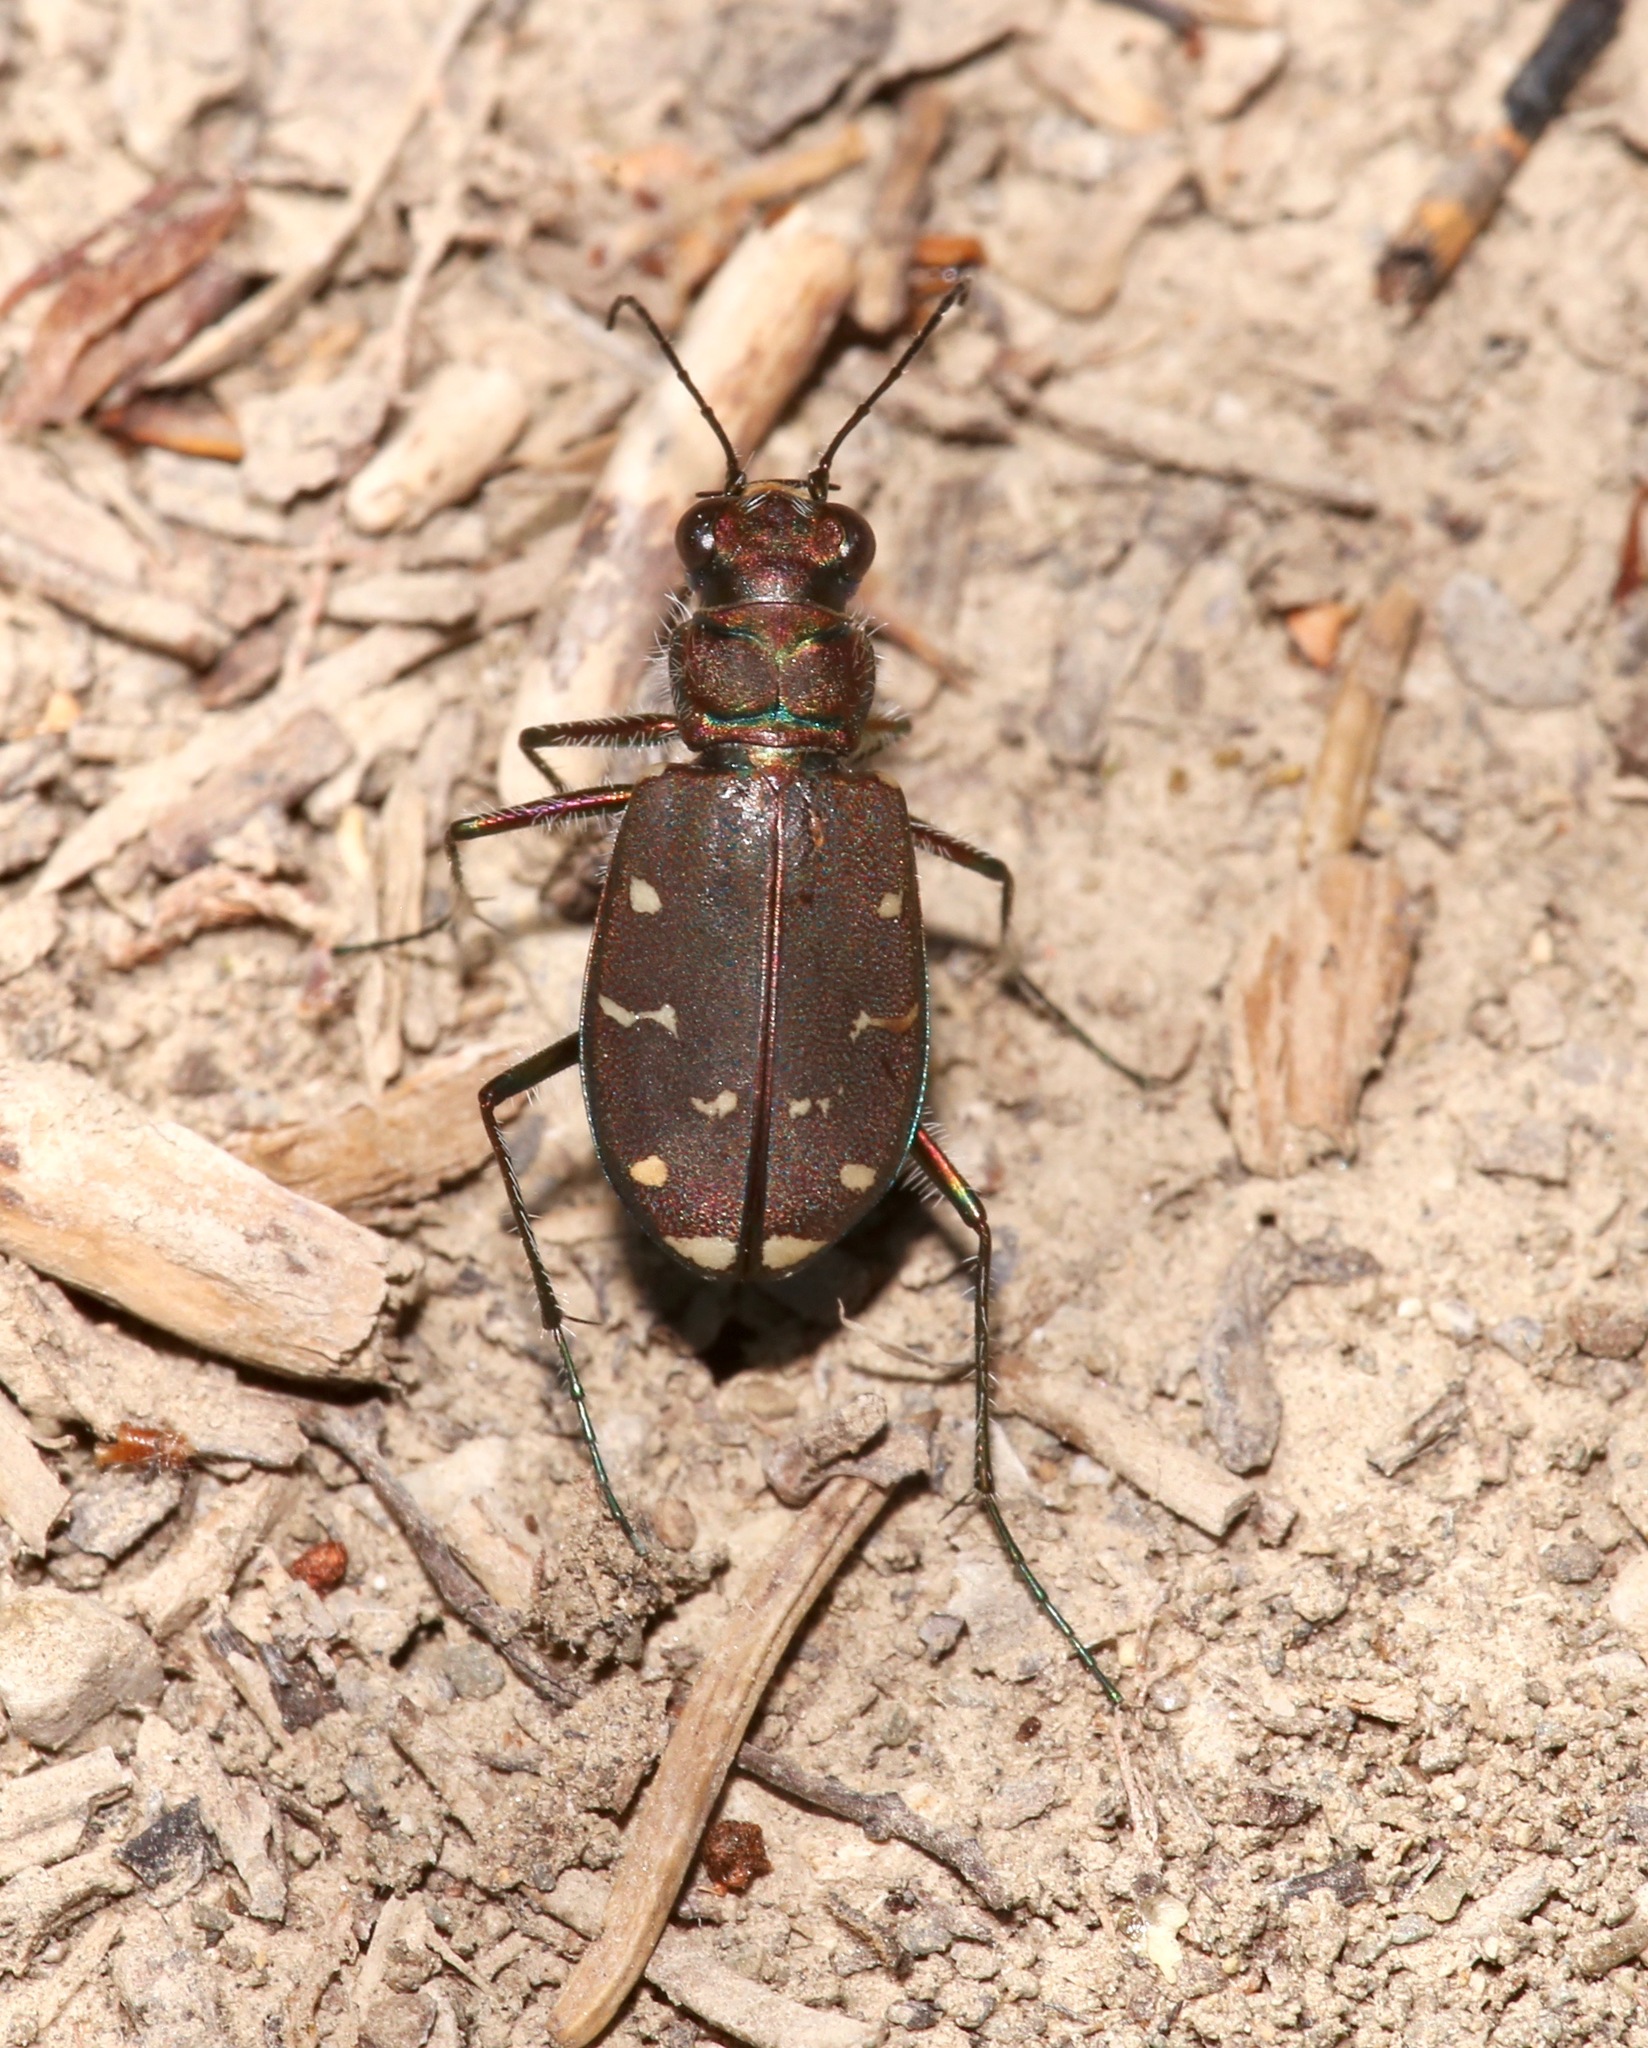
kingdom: Animalia
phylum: Arthropoda
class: Insecta
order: Coleoptera
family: Carabidae
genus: Cicindela
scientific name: Cicindela oregona
